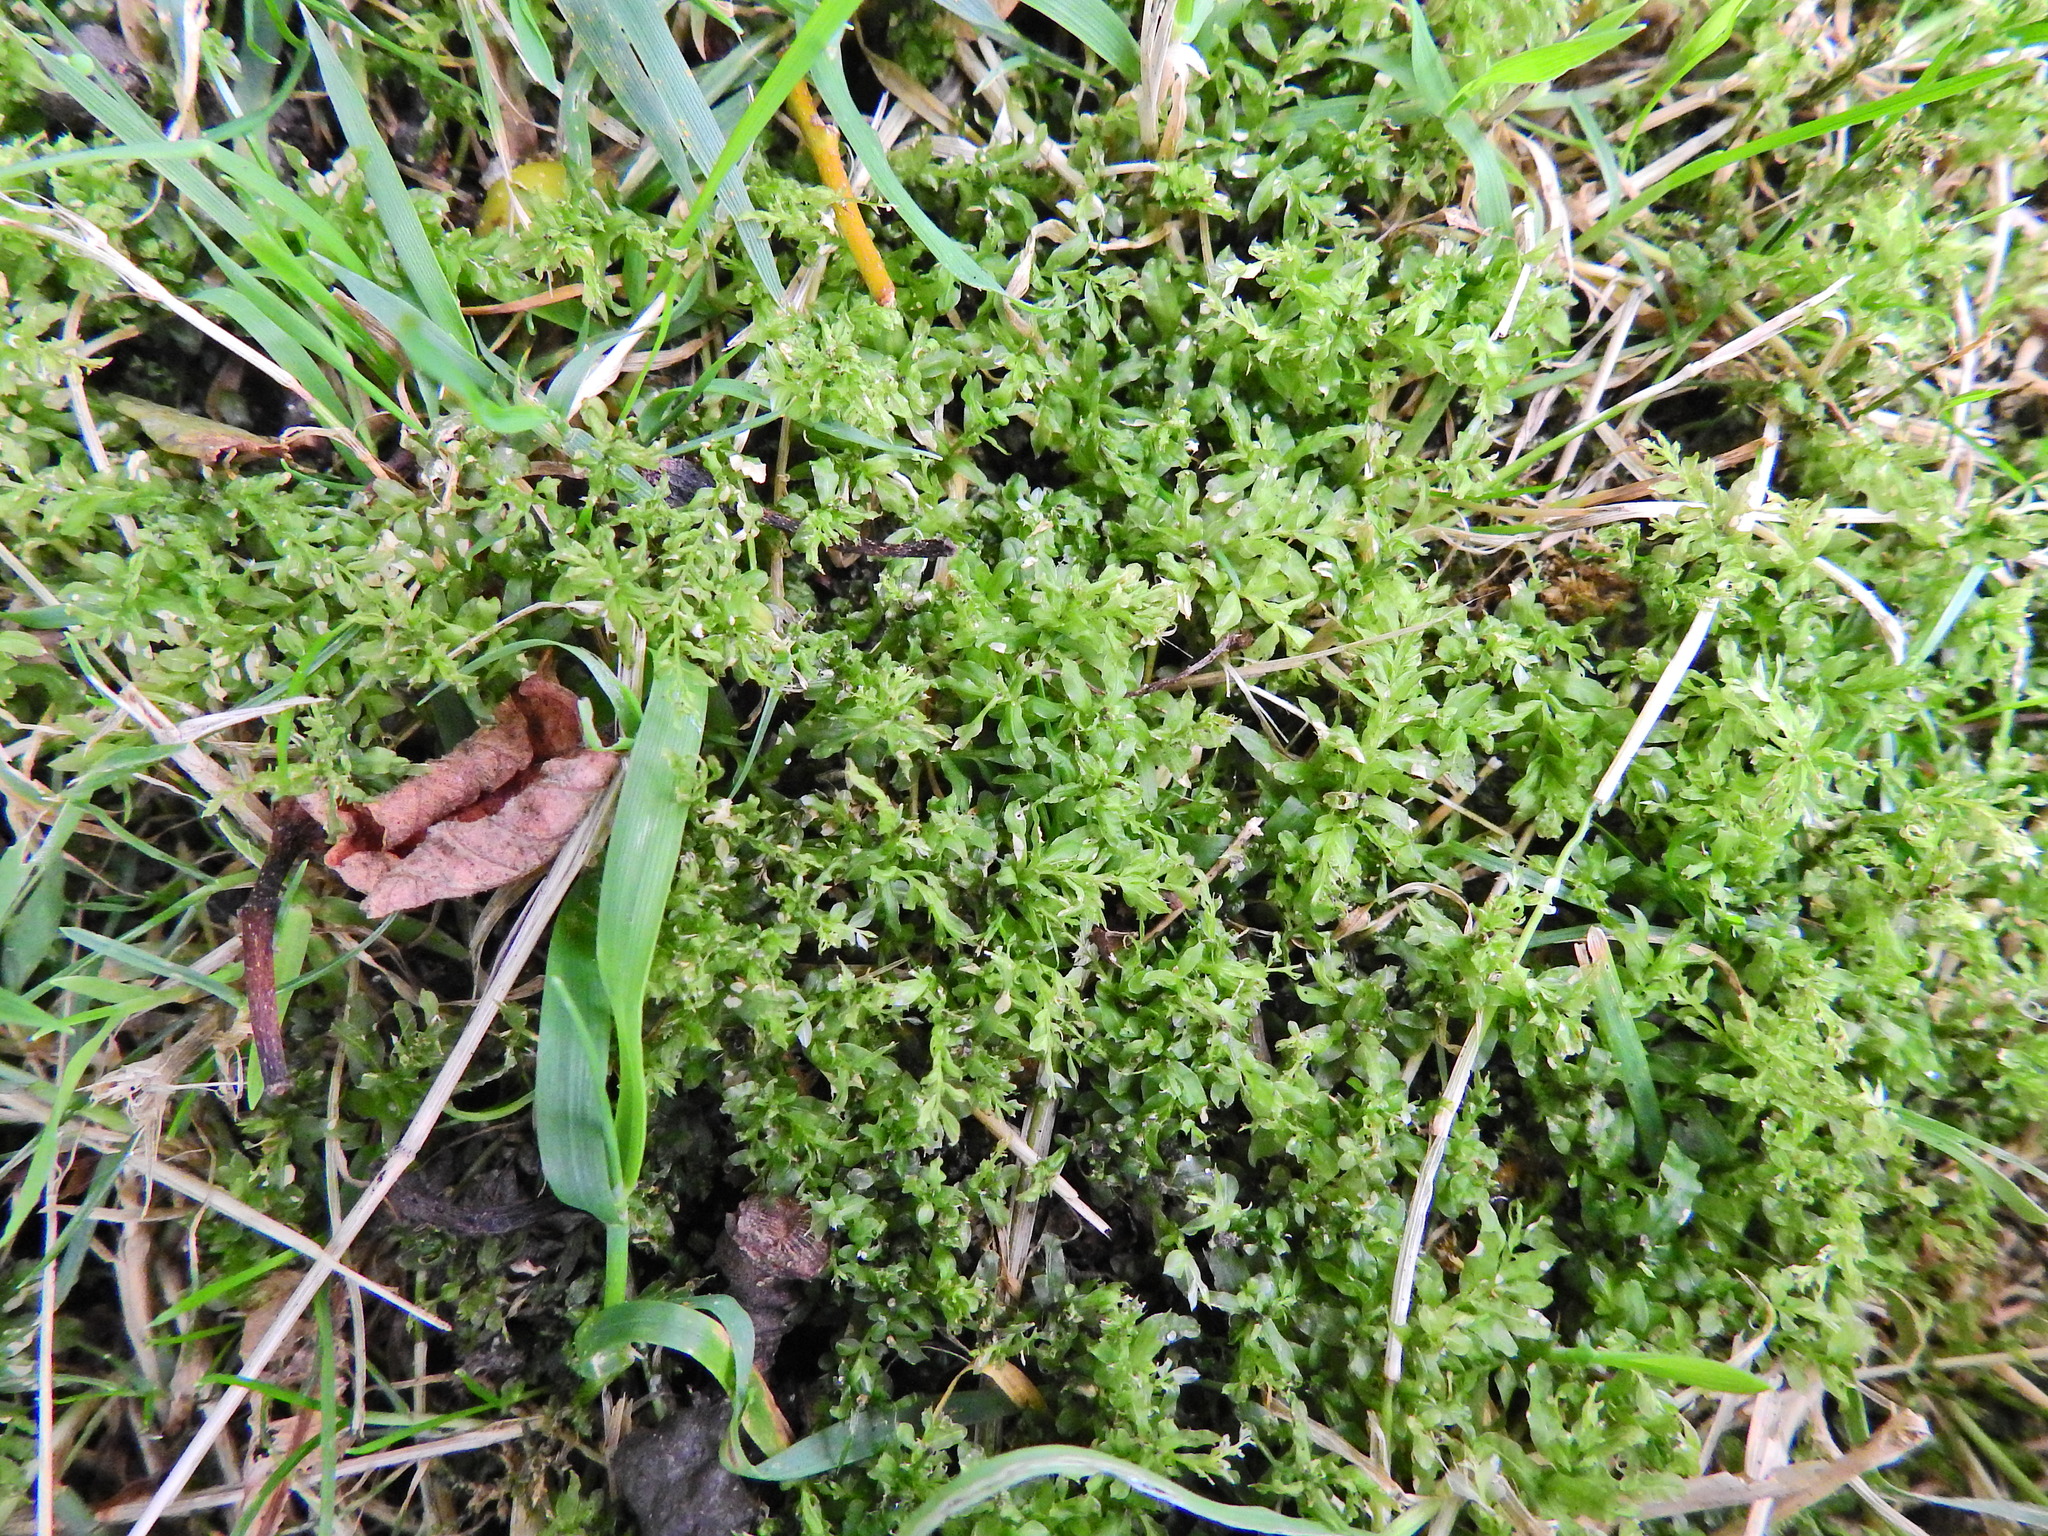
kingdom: Plantae
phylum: Bryophyta
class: Bryopsida
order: Bryales
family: Mniaceae
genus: Plagiomnium
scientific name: Plagiomnium undulatum
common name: Hart's-tongue thyme-moss
